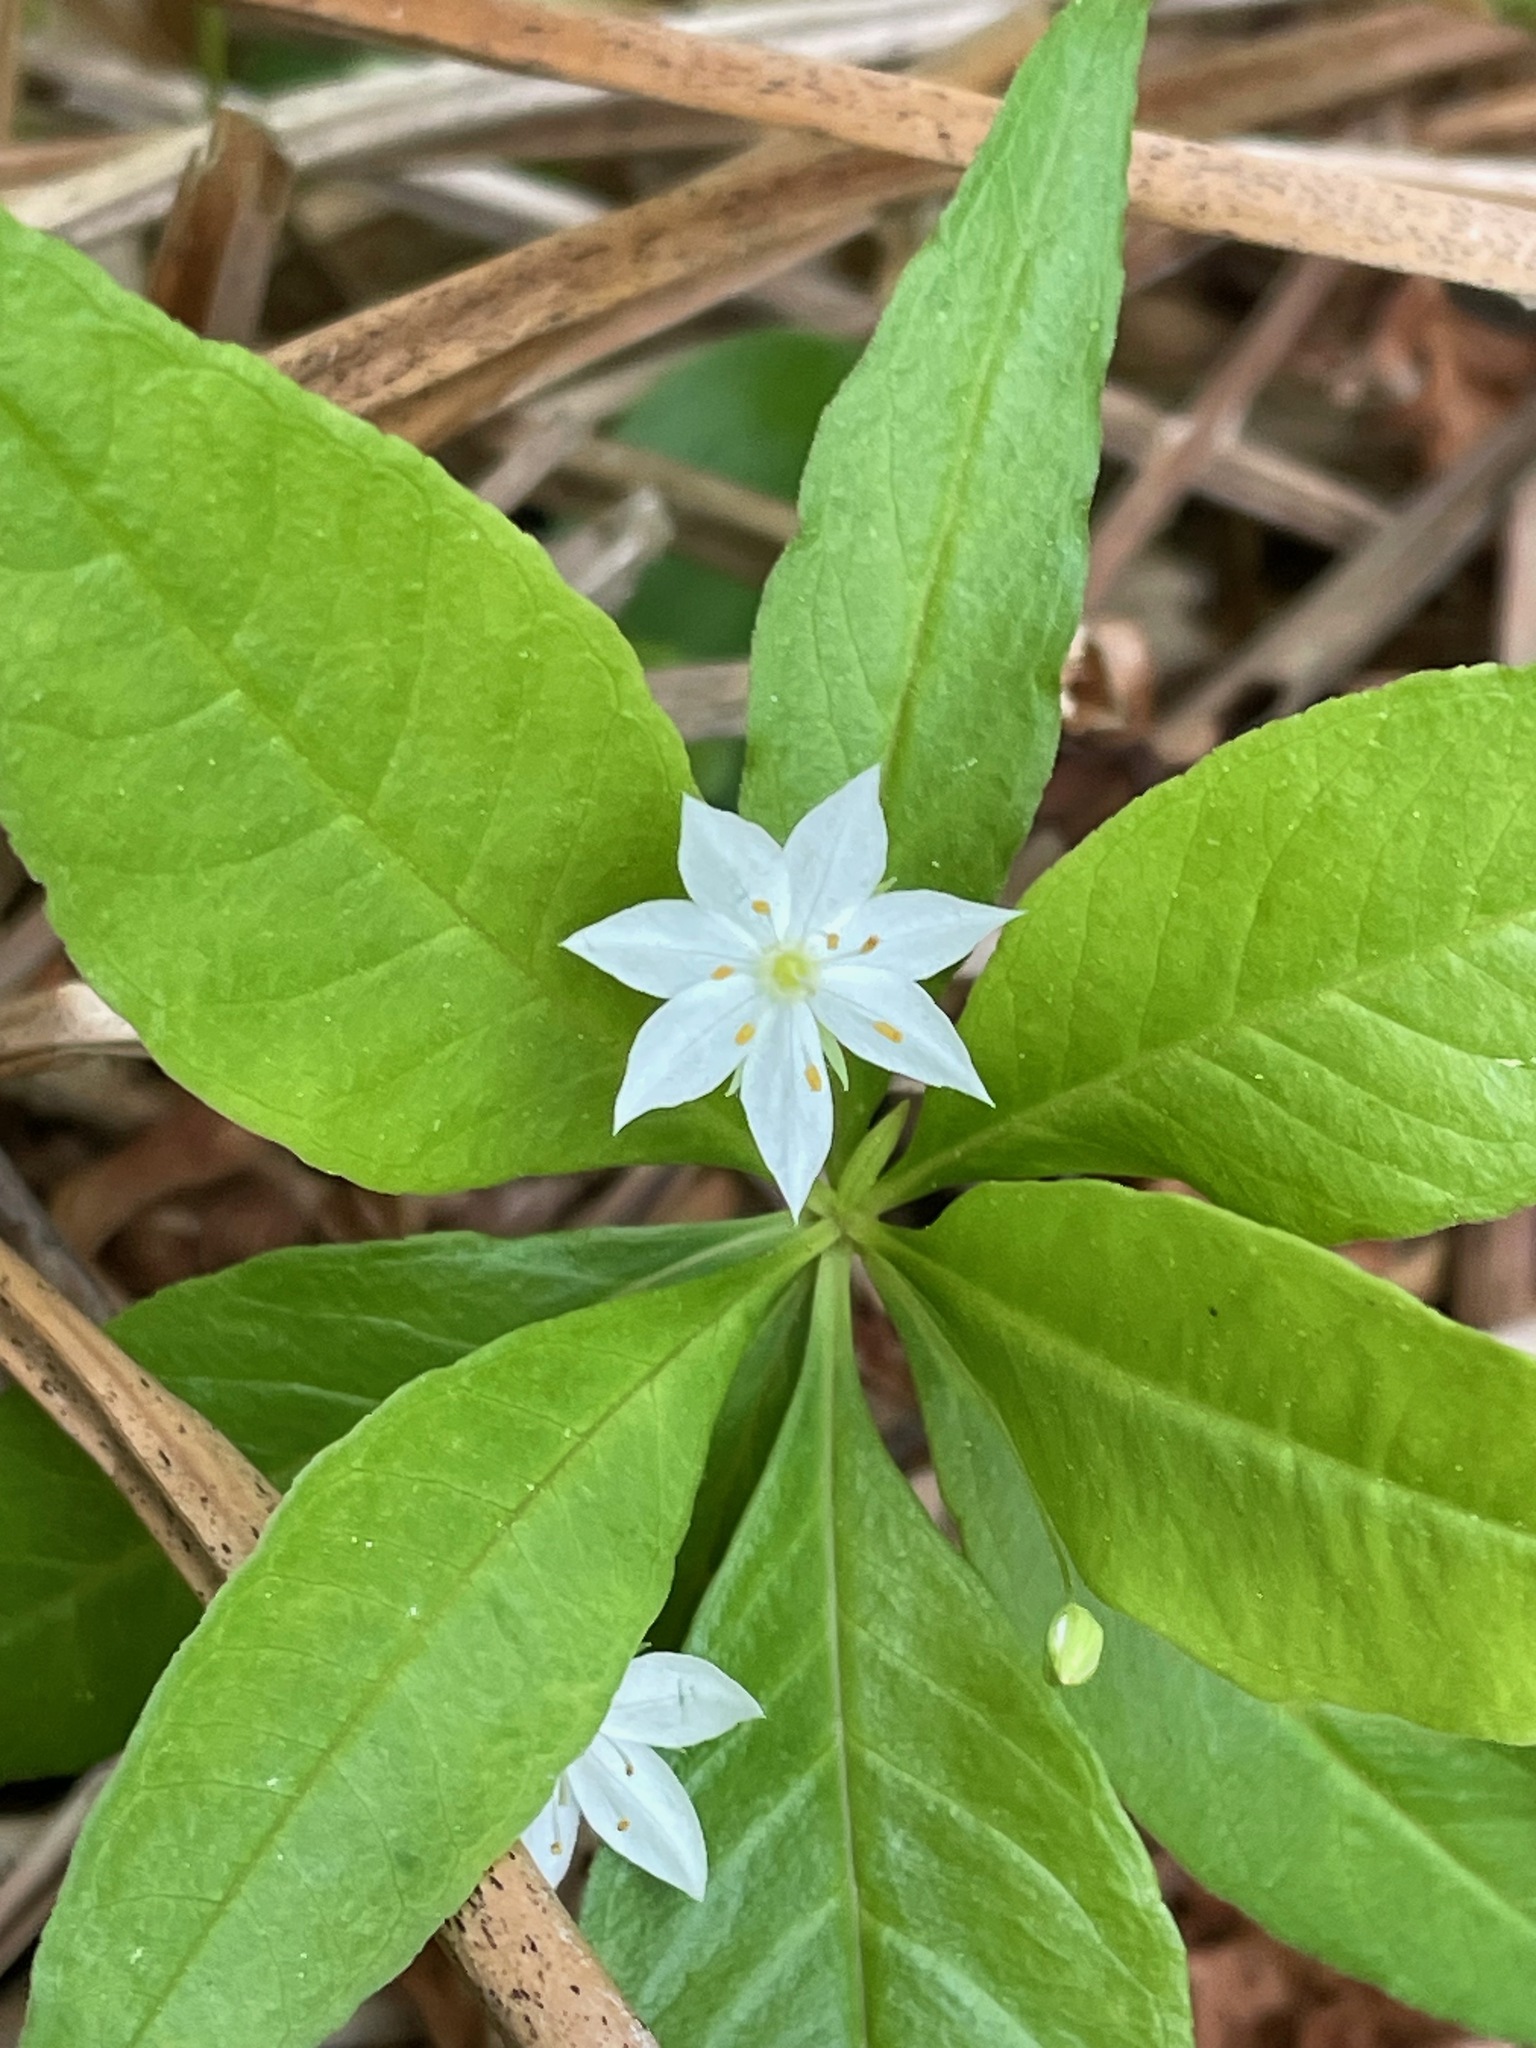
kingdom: Plantae
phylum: Tracheophyta
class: Magnoliopsida
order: Ericales
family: Primulaceae
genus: Lysimachia
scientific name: Lysimachia borealis
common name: American starflower
